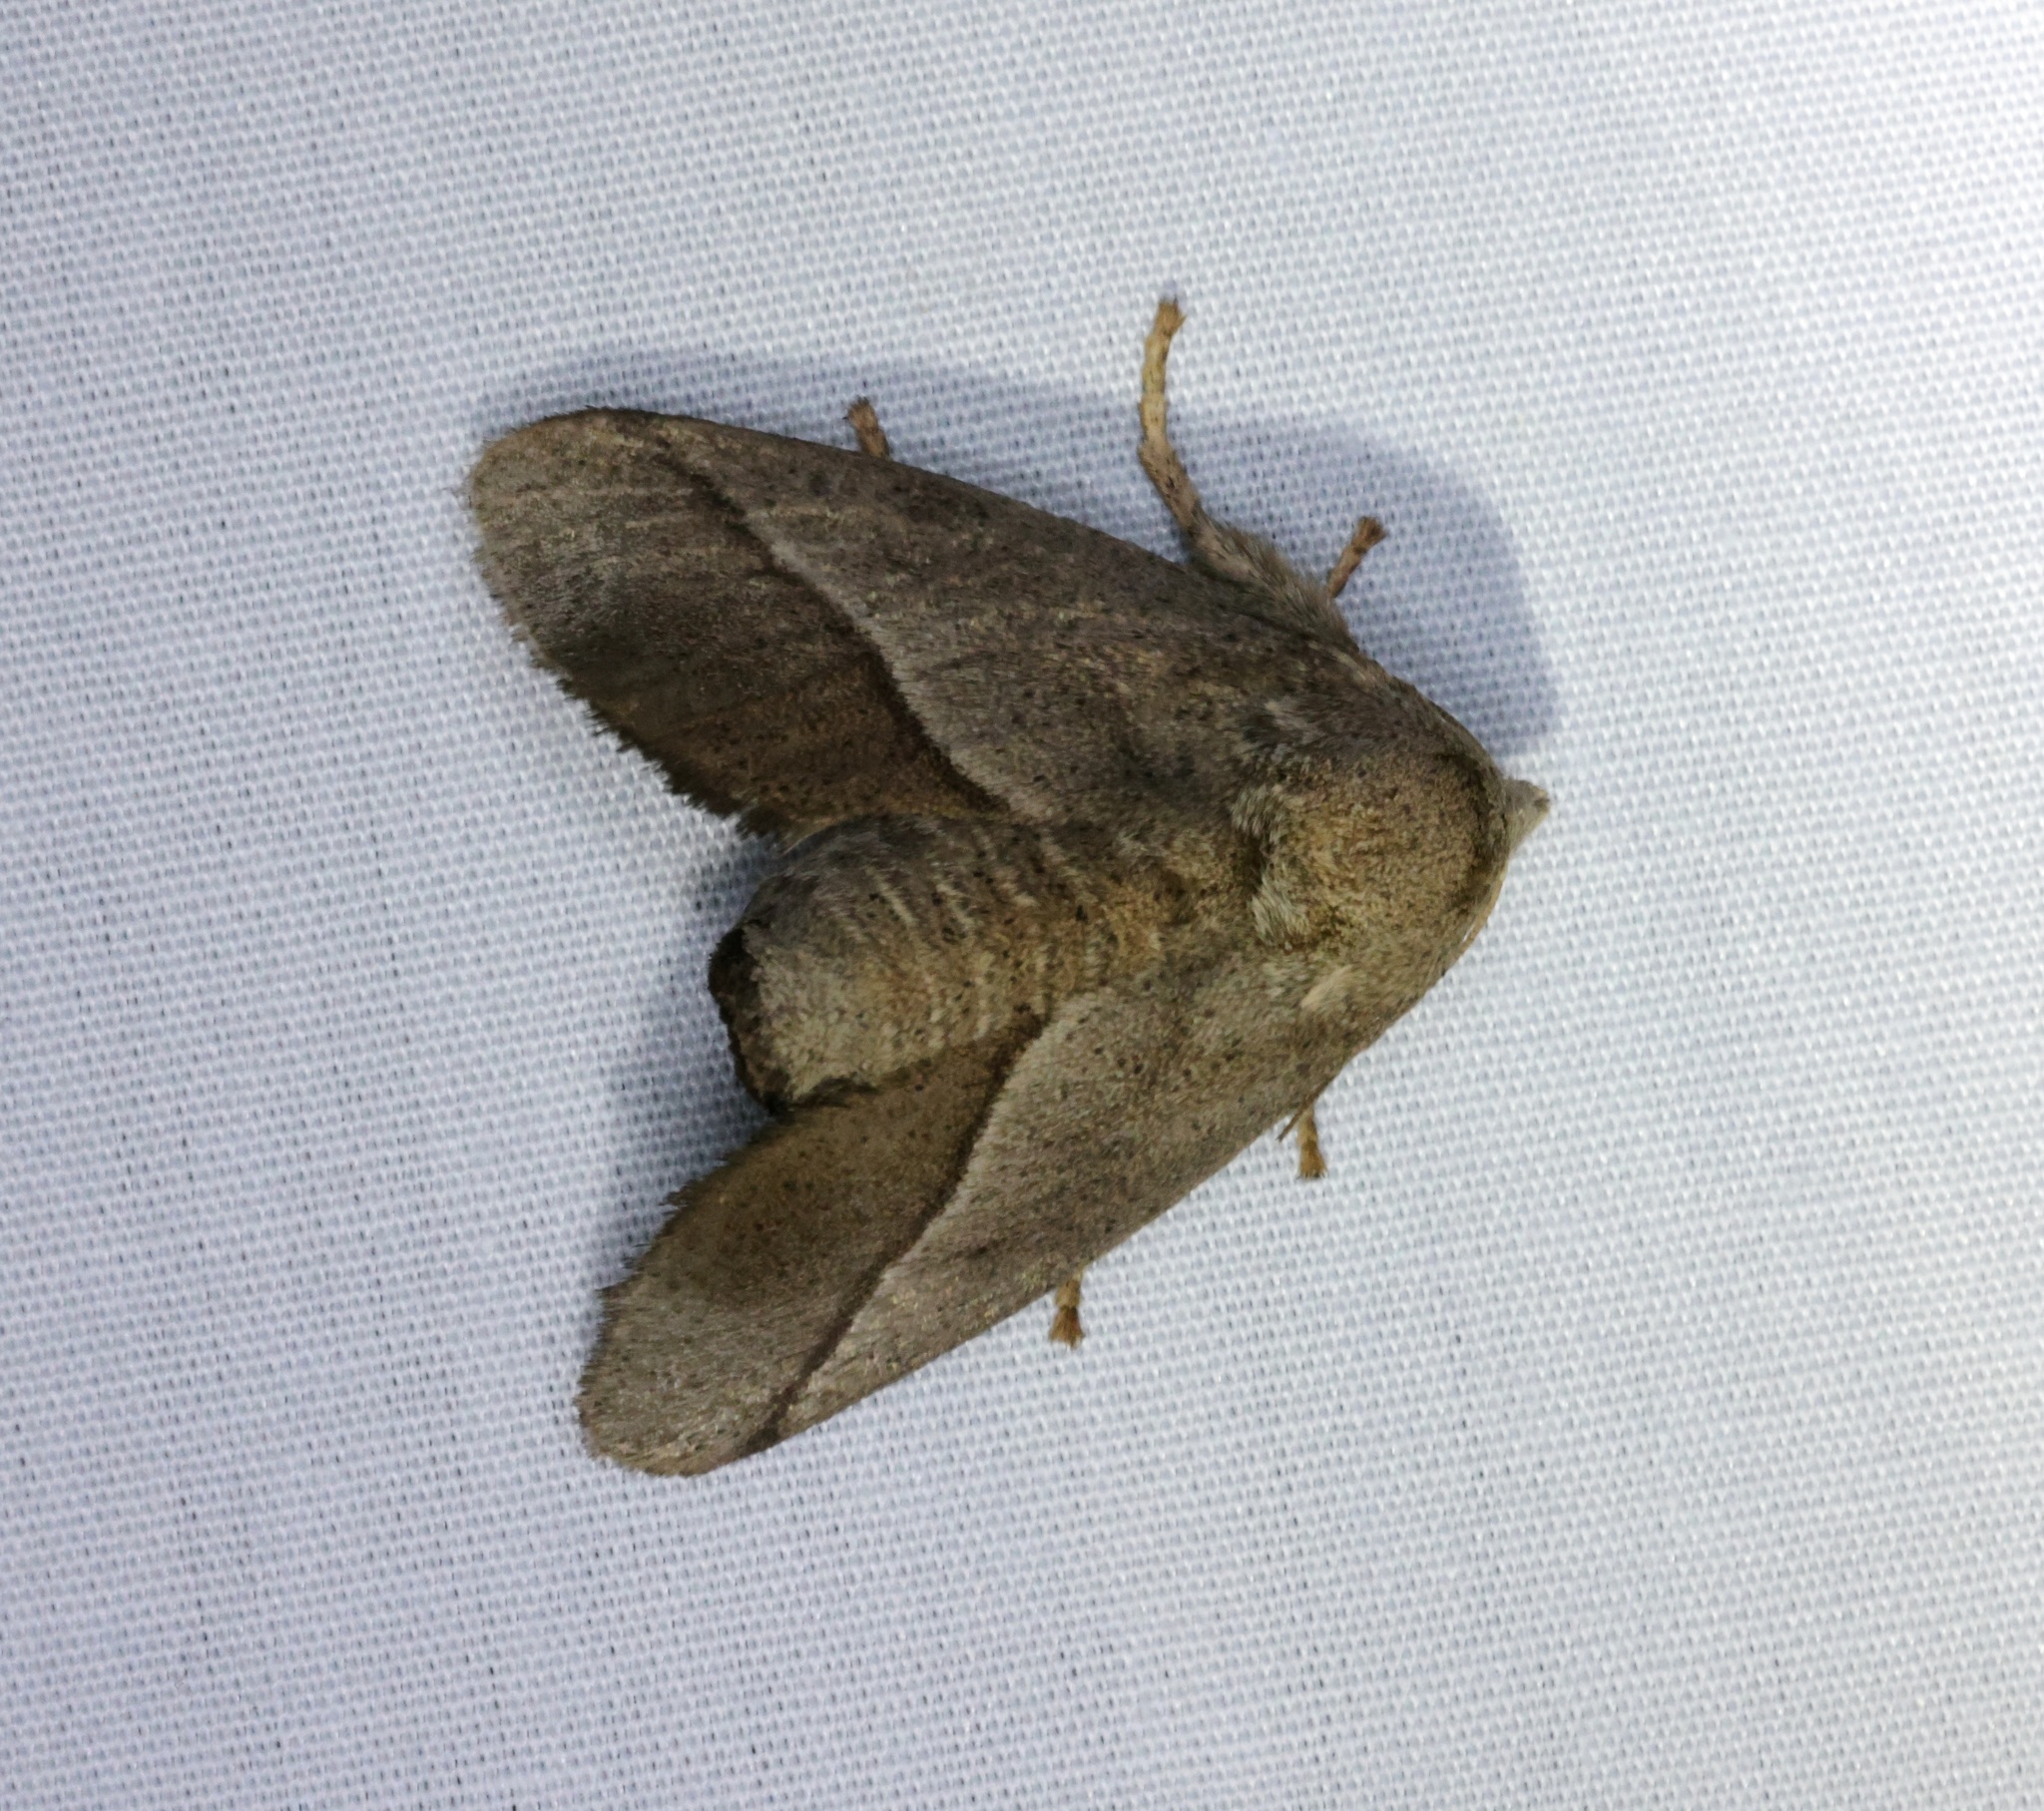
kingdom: Animalia
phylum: Arthropoda
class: Insecta
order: Lepidoptera
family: Limacodidae
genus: Thosea
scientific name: Thosea sinensis
